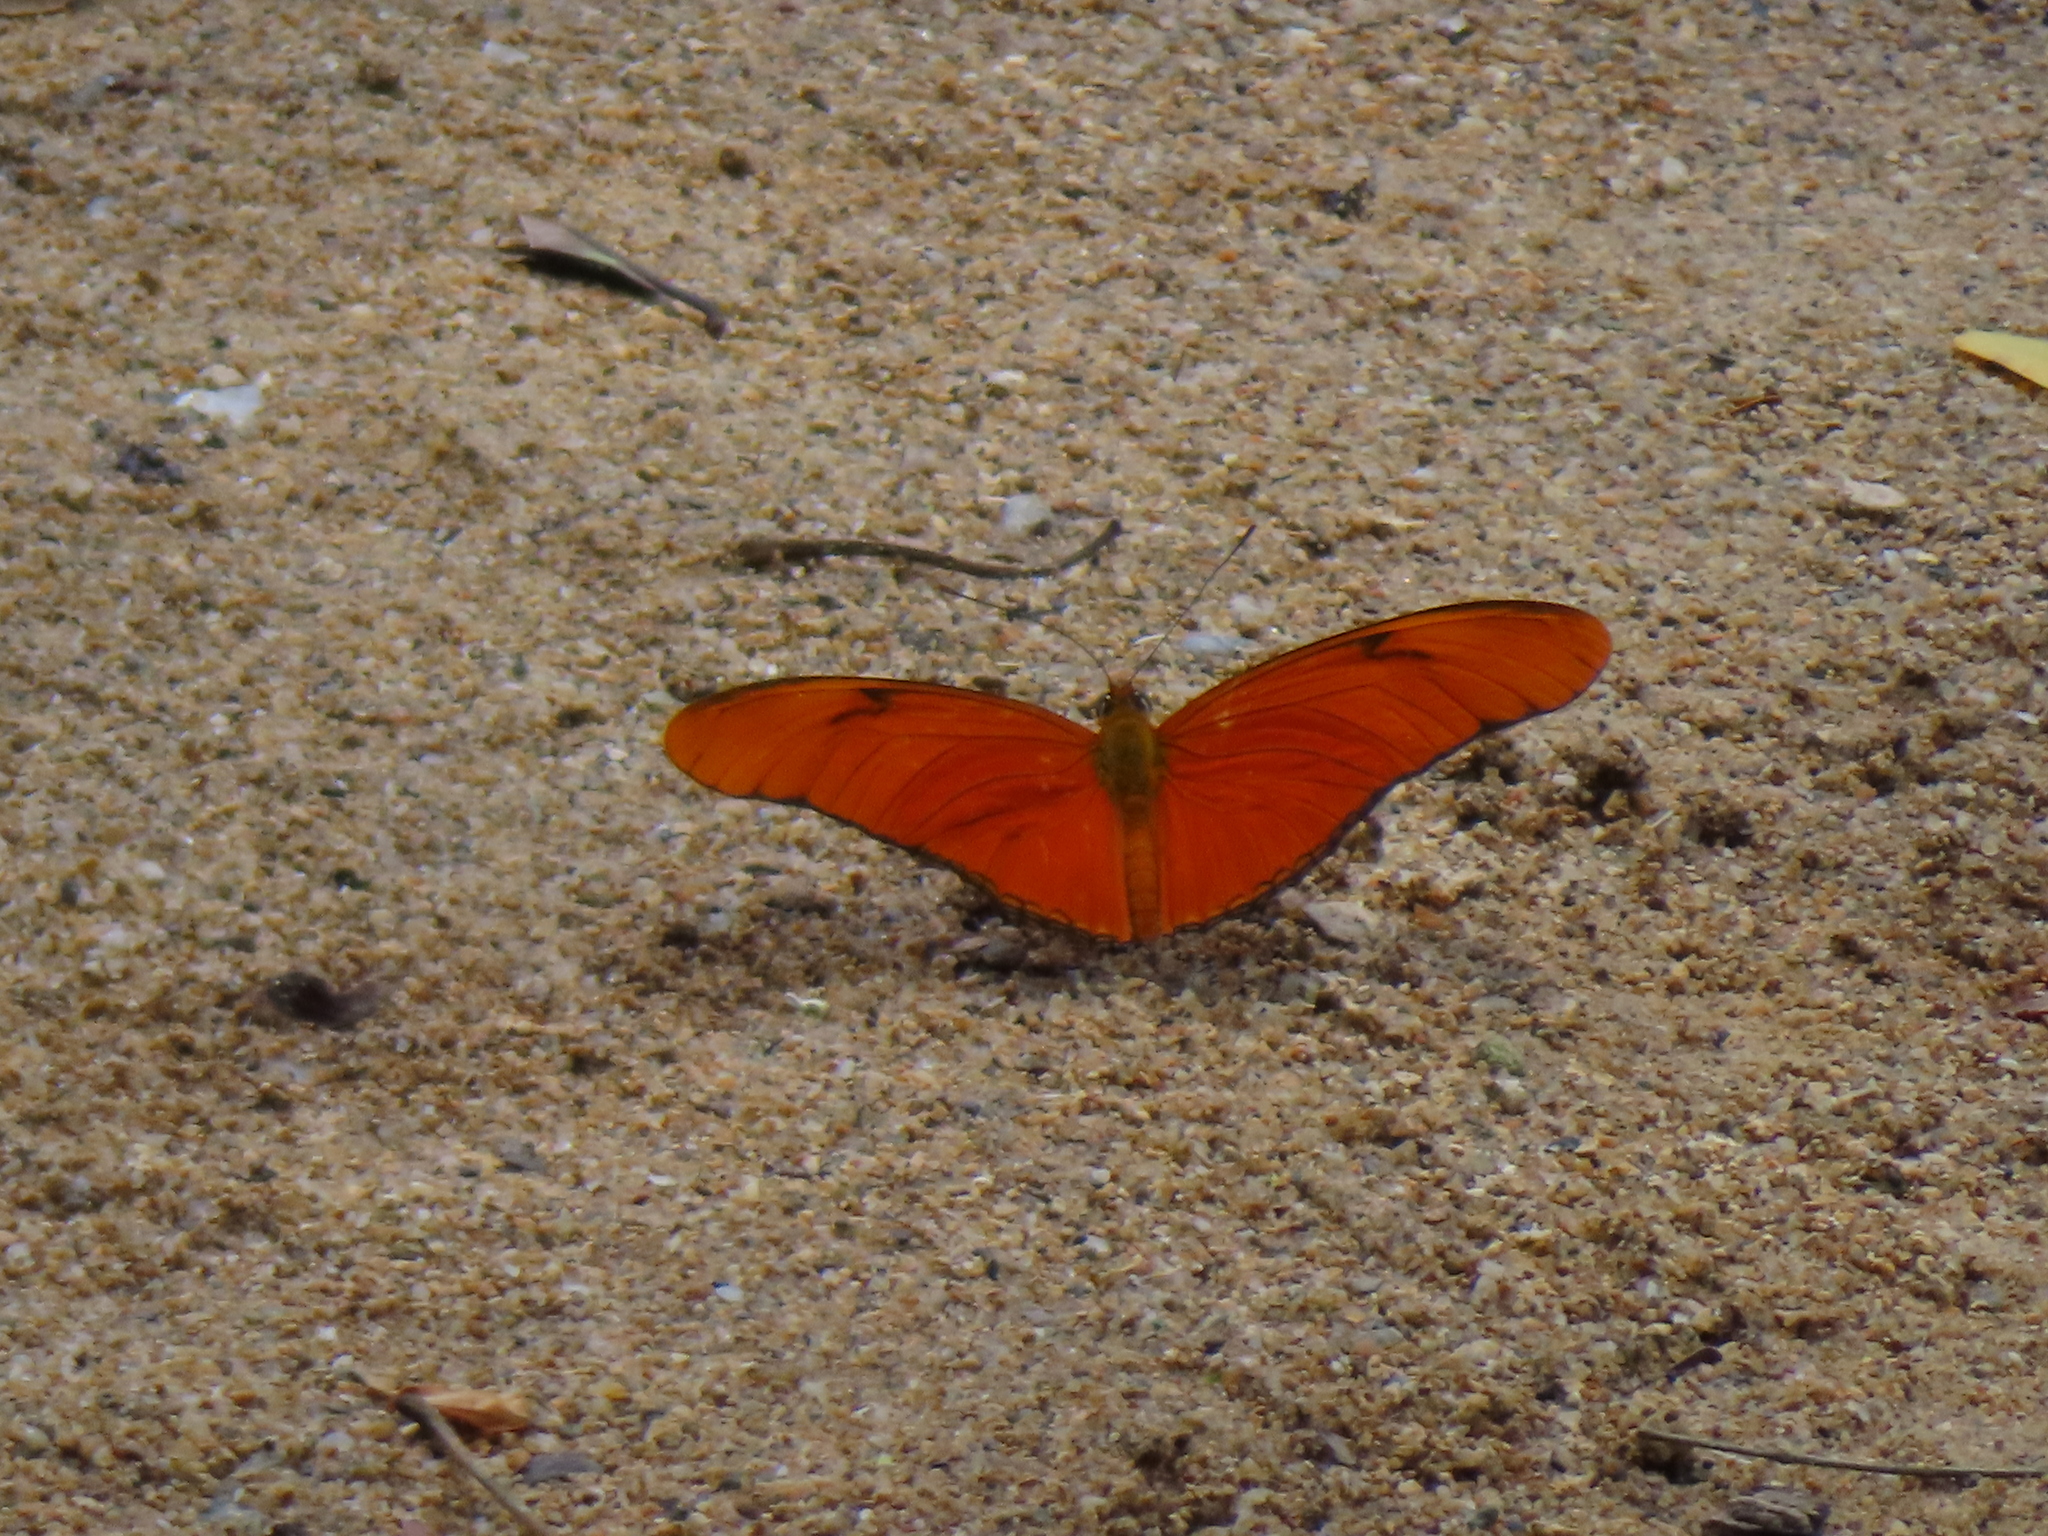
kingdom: Animalia
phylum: Arthropoda
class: Insecta
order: Lepidoptera
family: Nymphalidae
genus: Dryas
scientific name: Dryas iulia
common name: Flambeau
